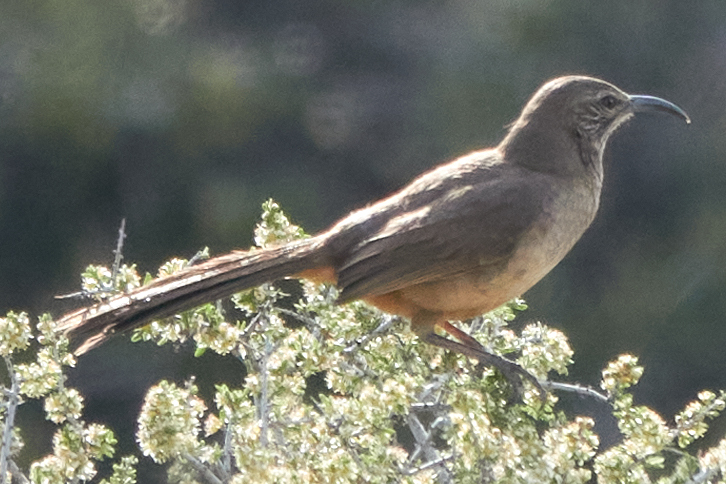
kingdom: Animalia
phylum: Chordata
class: Aves
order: Passeriformes
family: Mimidae
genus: Toxostoma
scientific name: Toxostoma redivivum
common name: California thrasher
